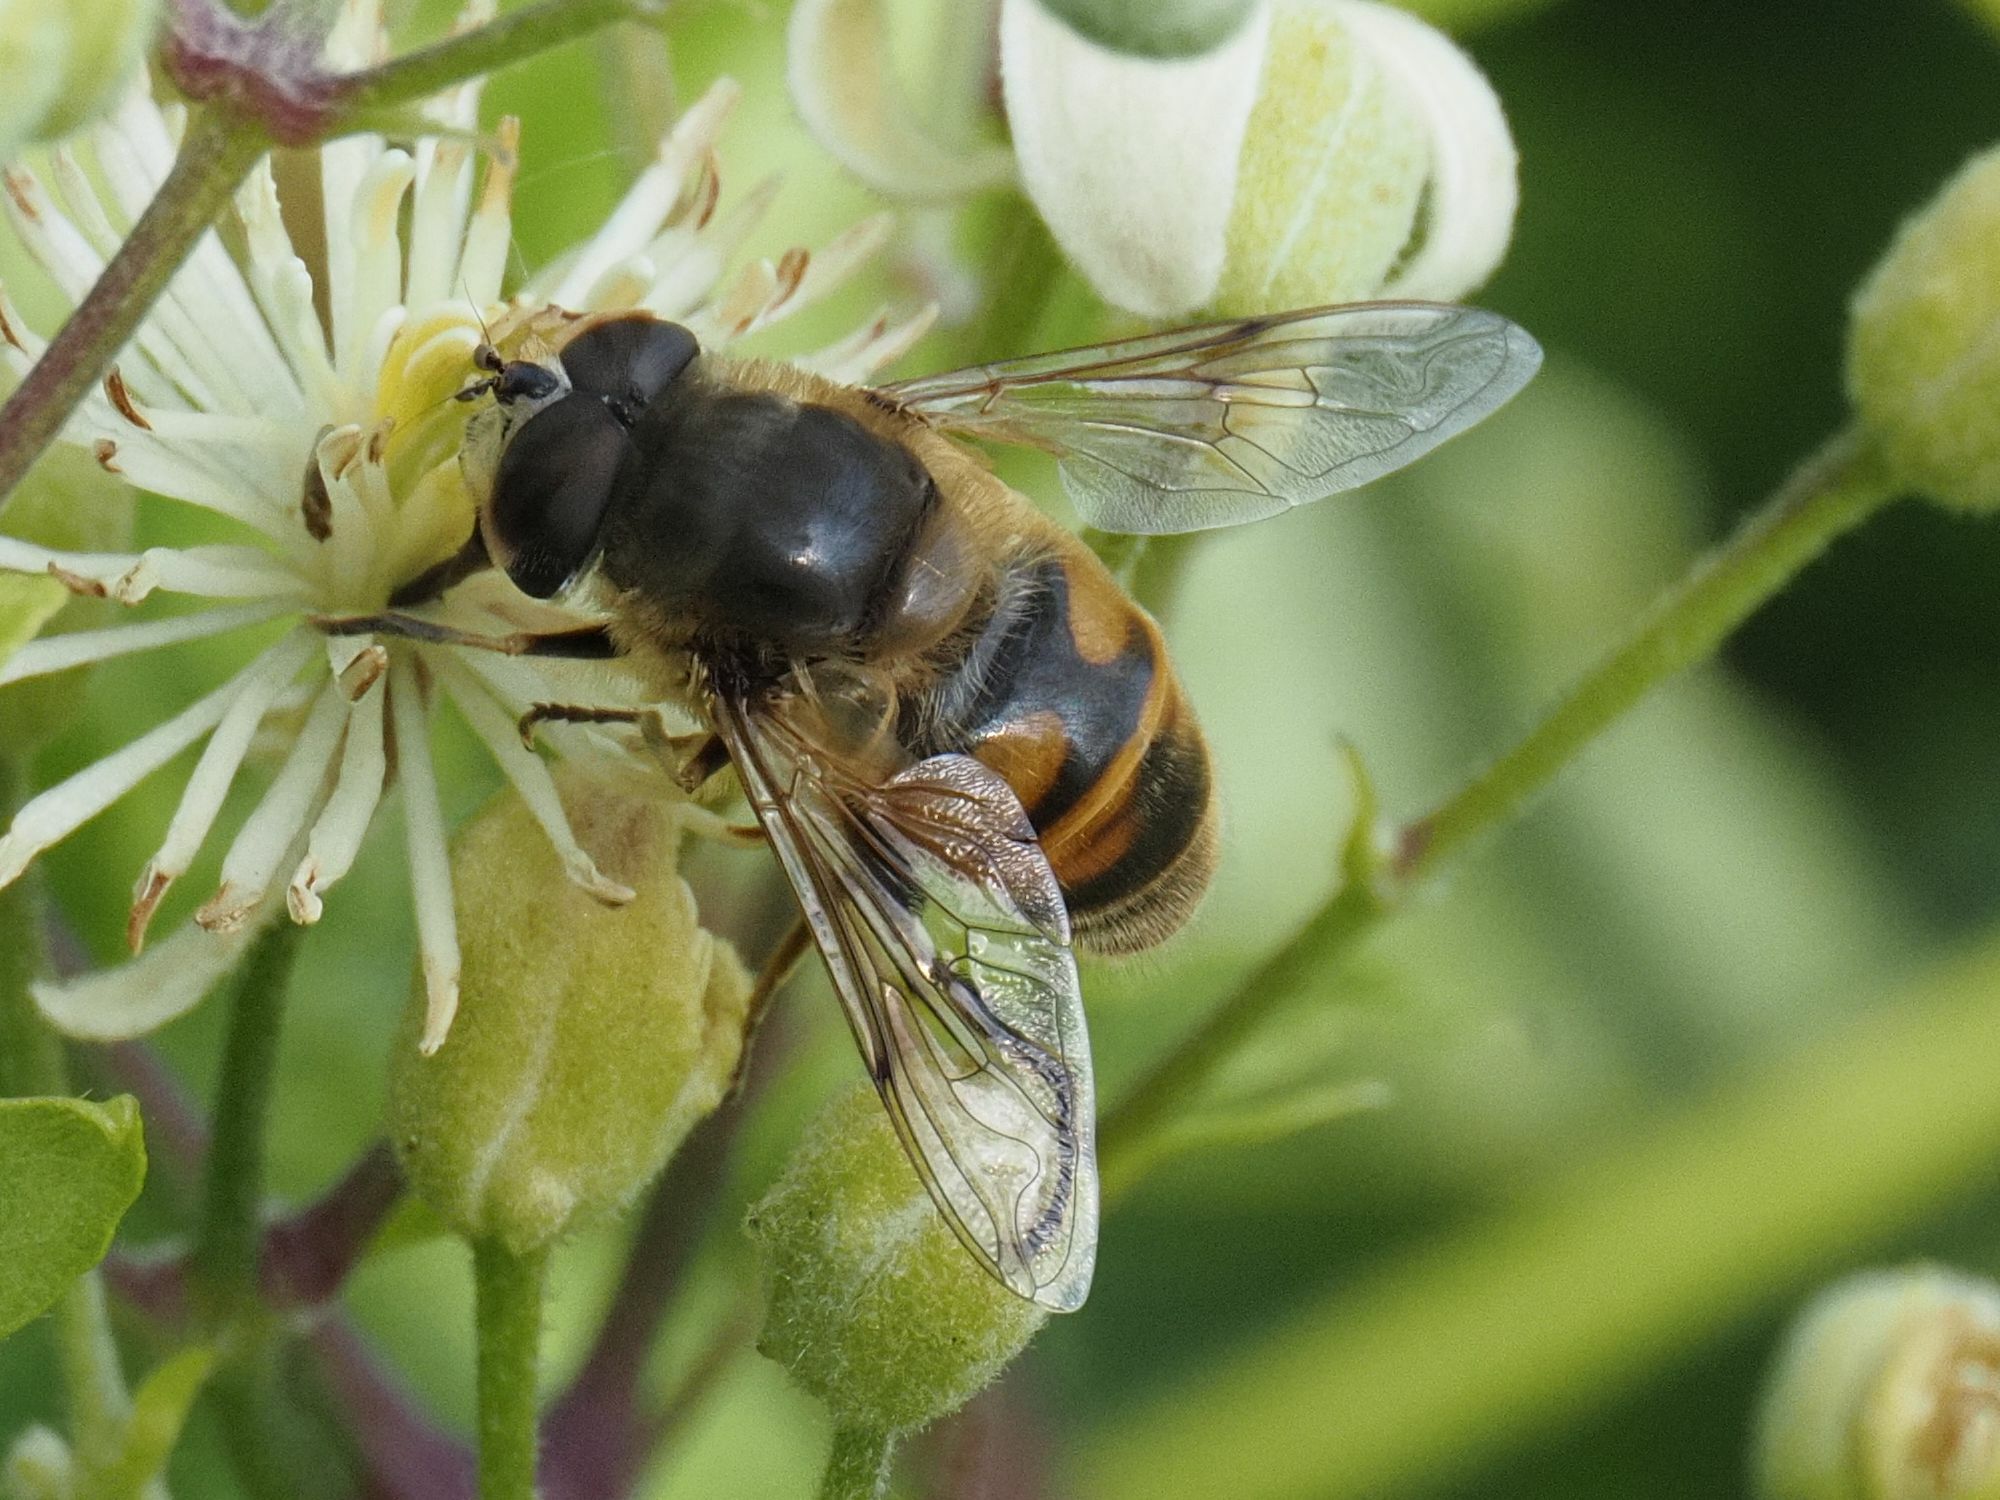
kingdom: Animalia
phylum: Arthropoda
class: Insecta
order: Diptera
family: Syrphidae
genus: Eristalis
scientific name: Eristalis tenax
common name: Drone fly
